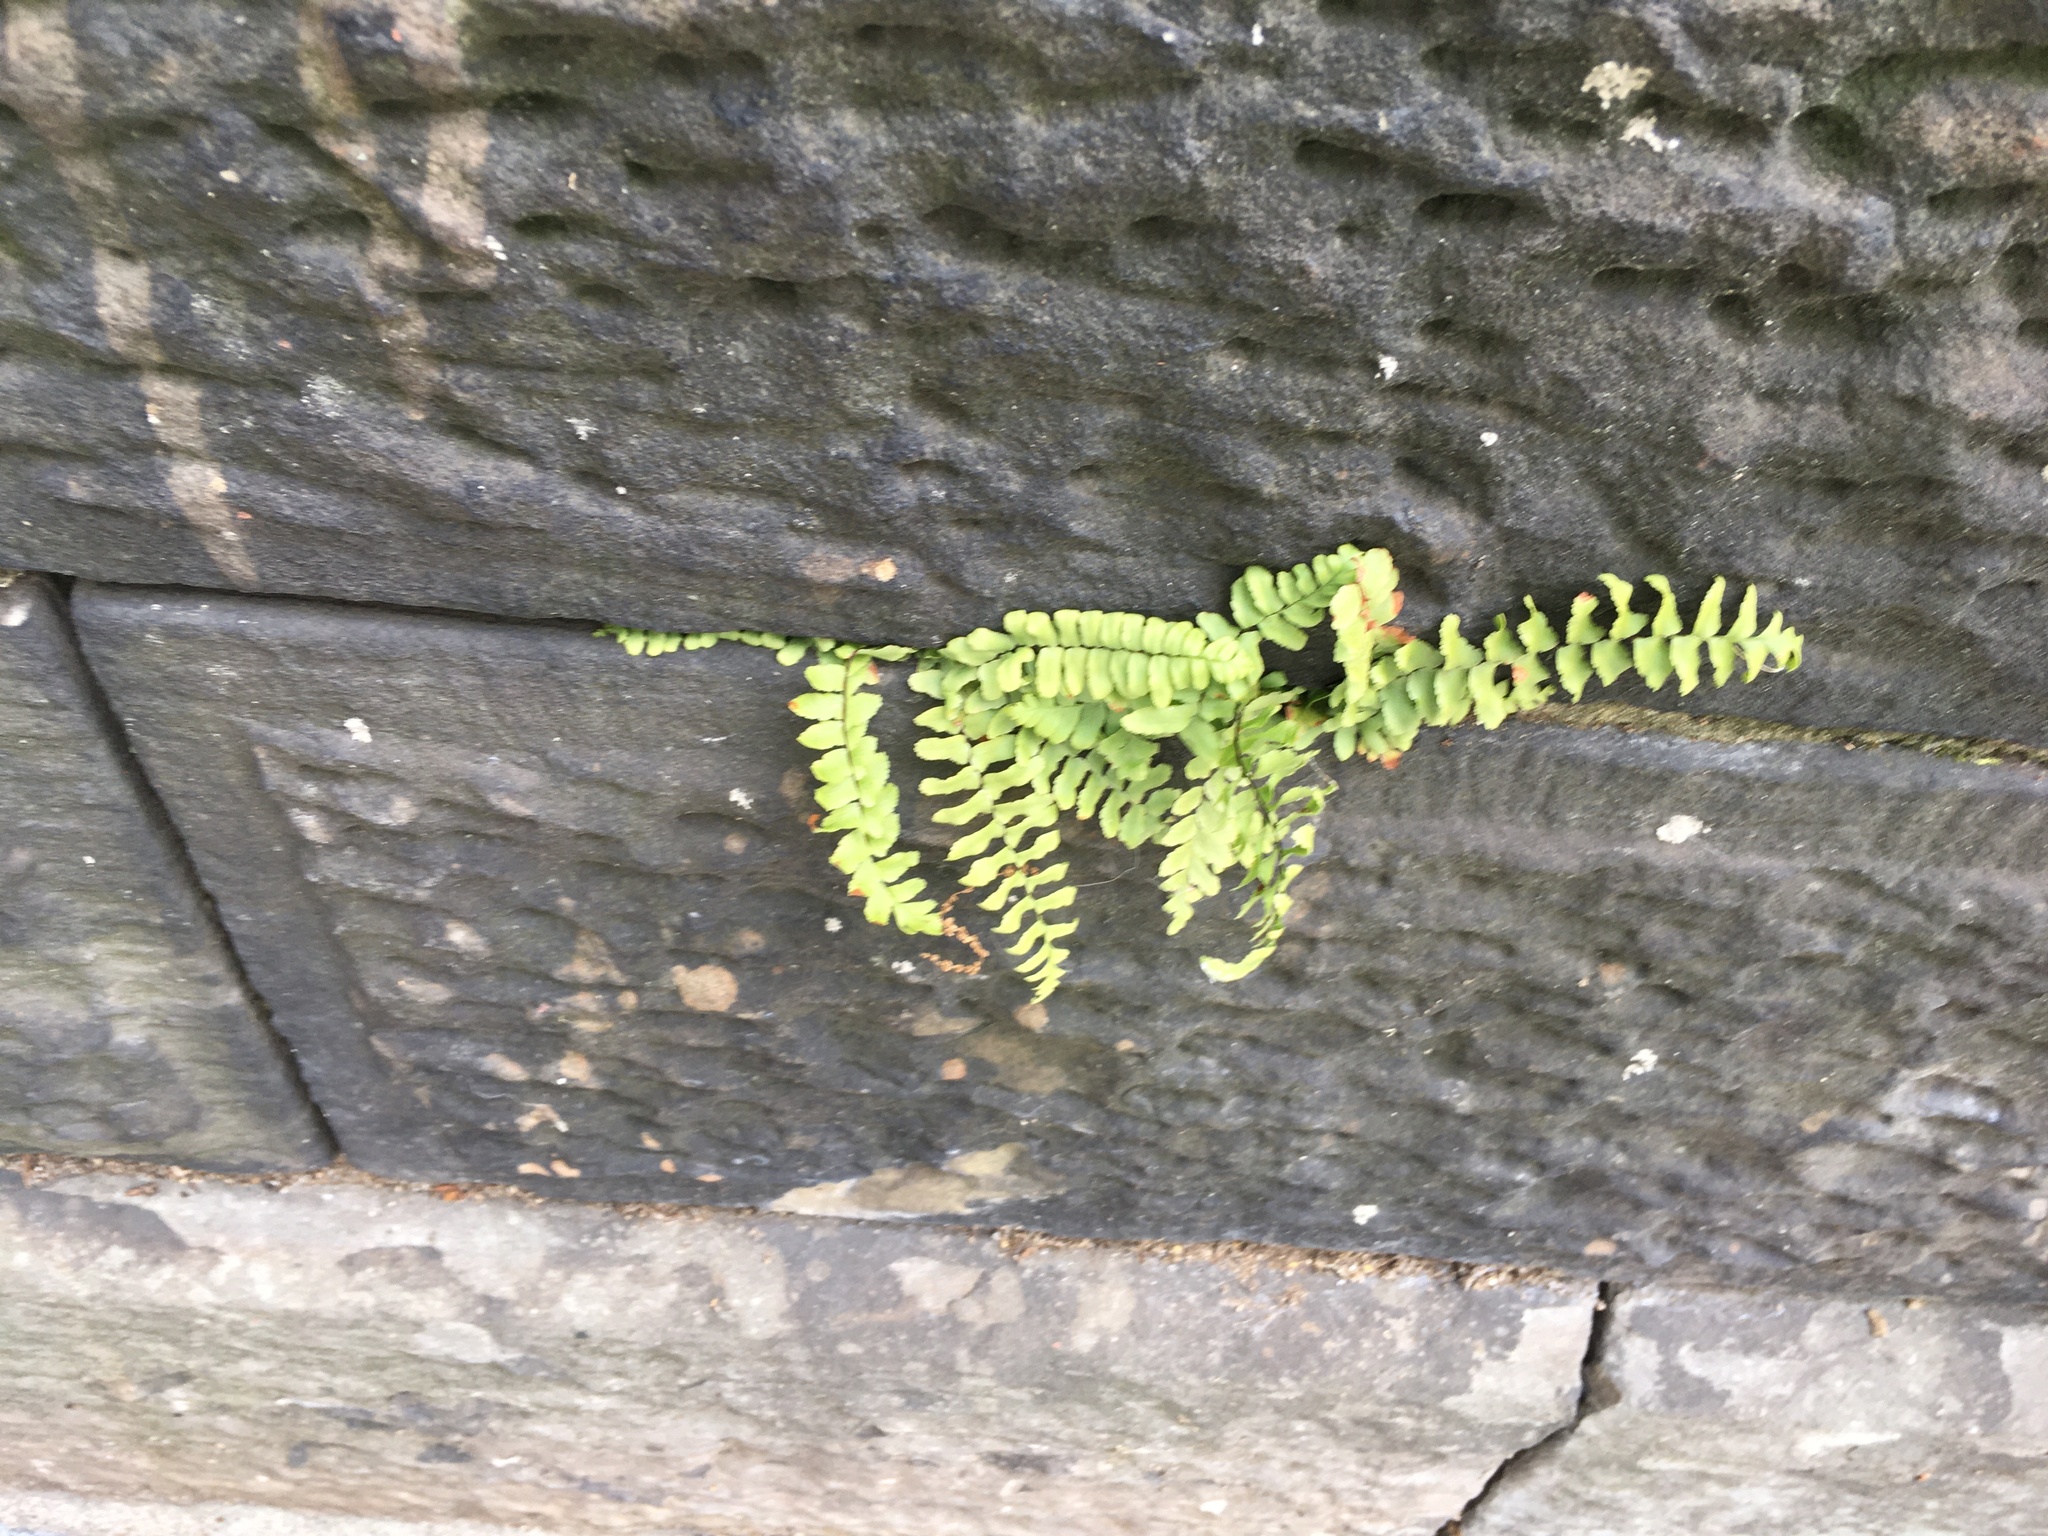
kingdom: Plantae
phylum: Tracheophyta
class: Polypodiopsida
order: Polypodiales
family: Aspleniaceae
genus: Asplenium
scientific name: Asplenium platyneuron
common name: Ebony spleenwort
